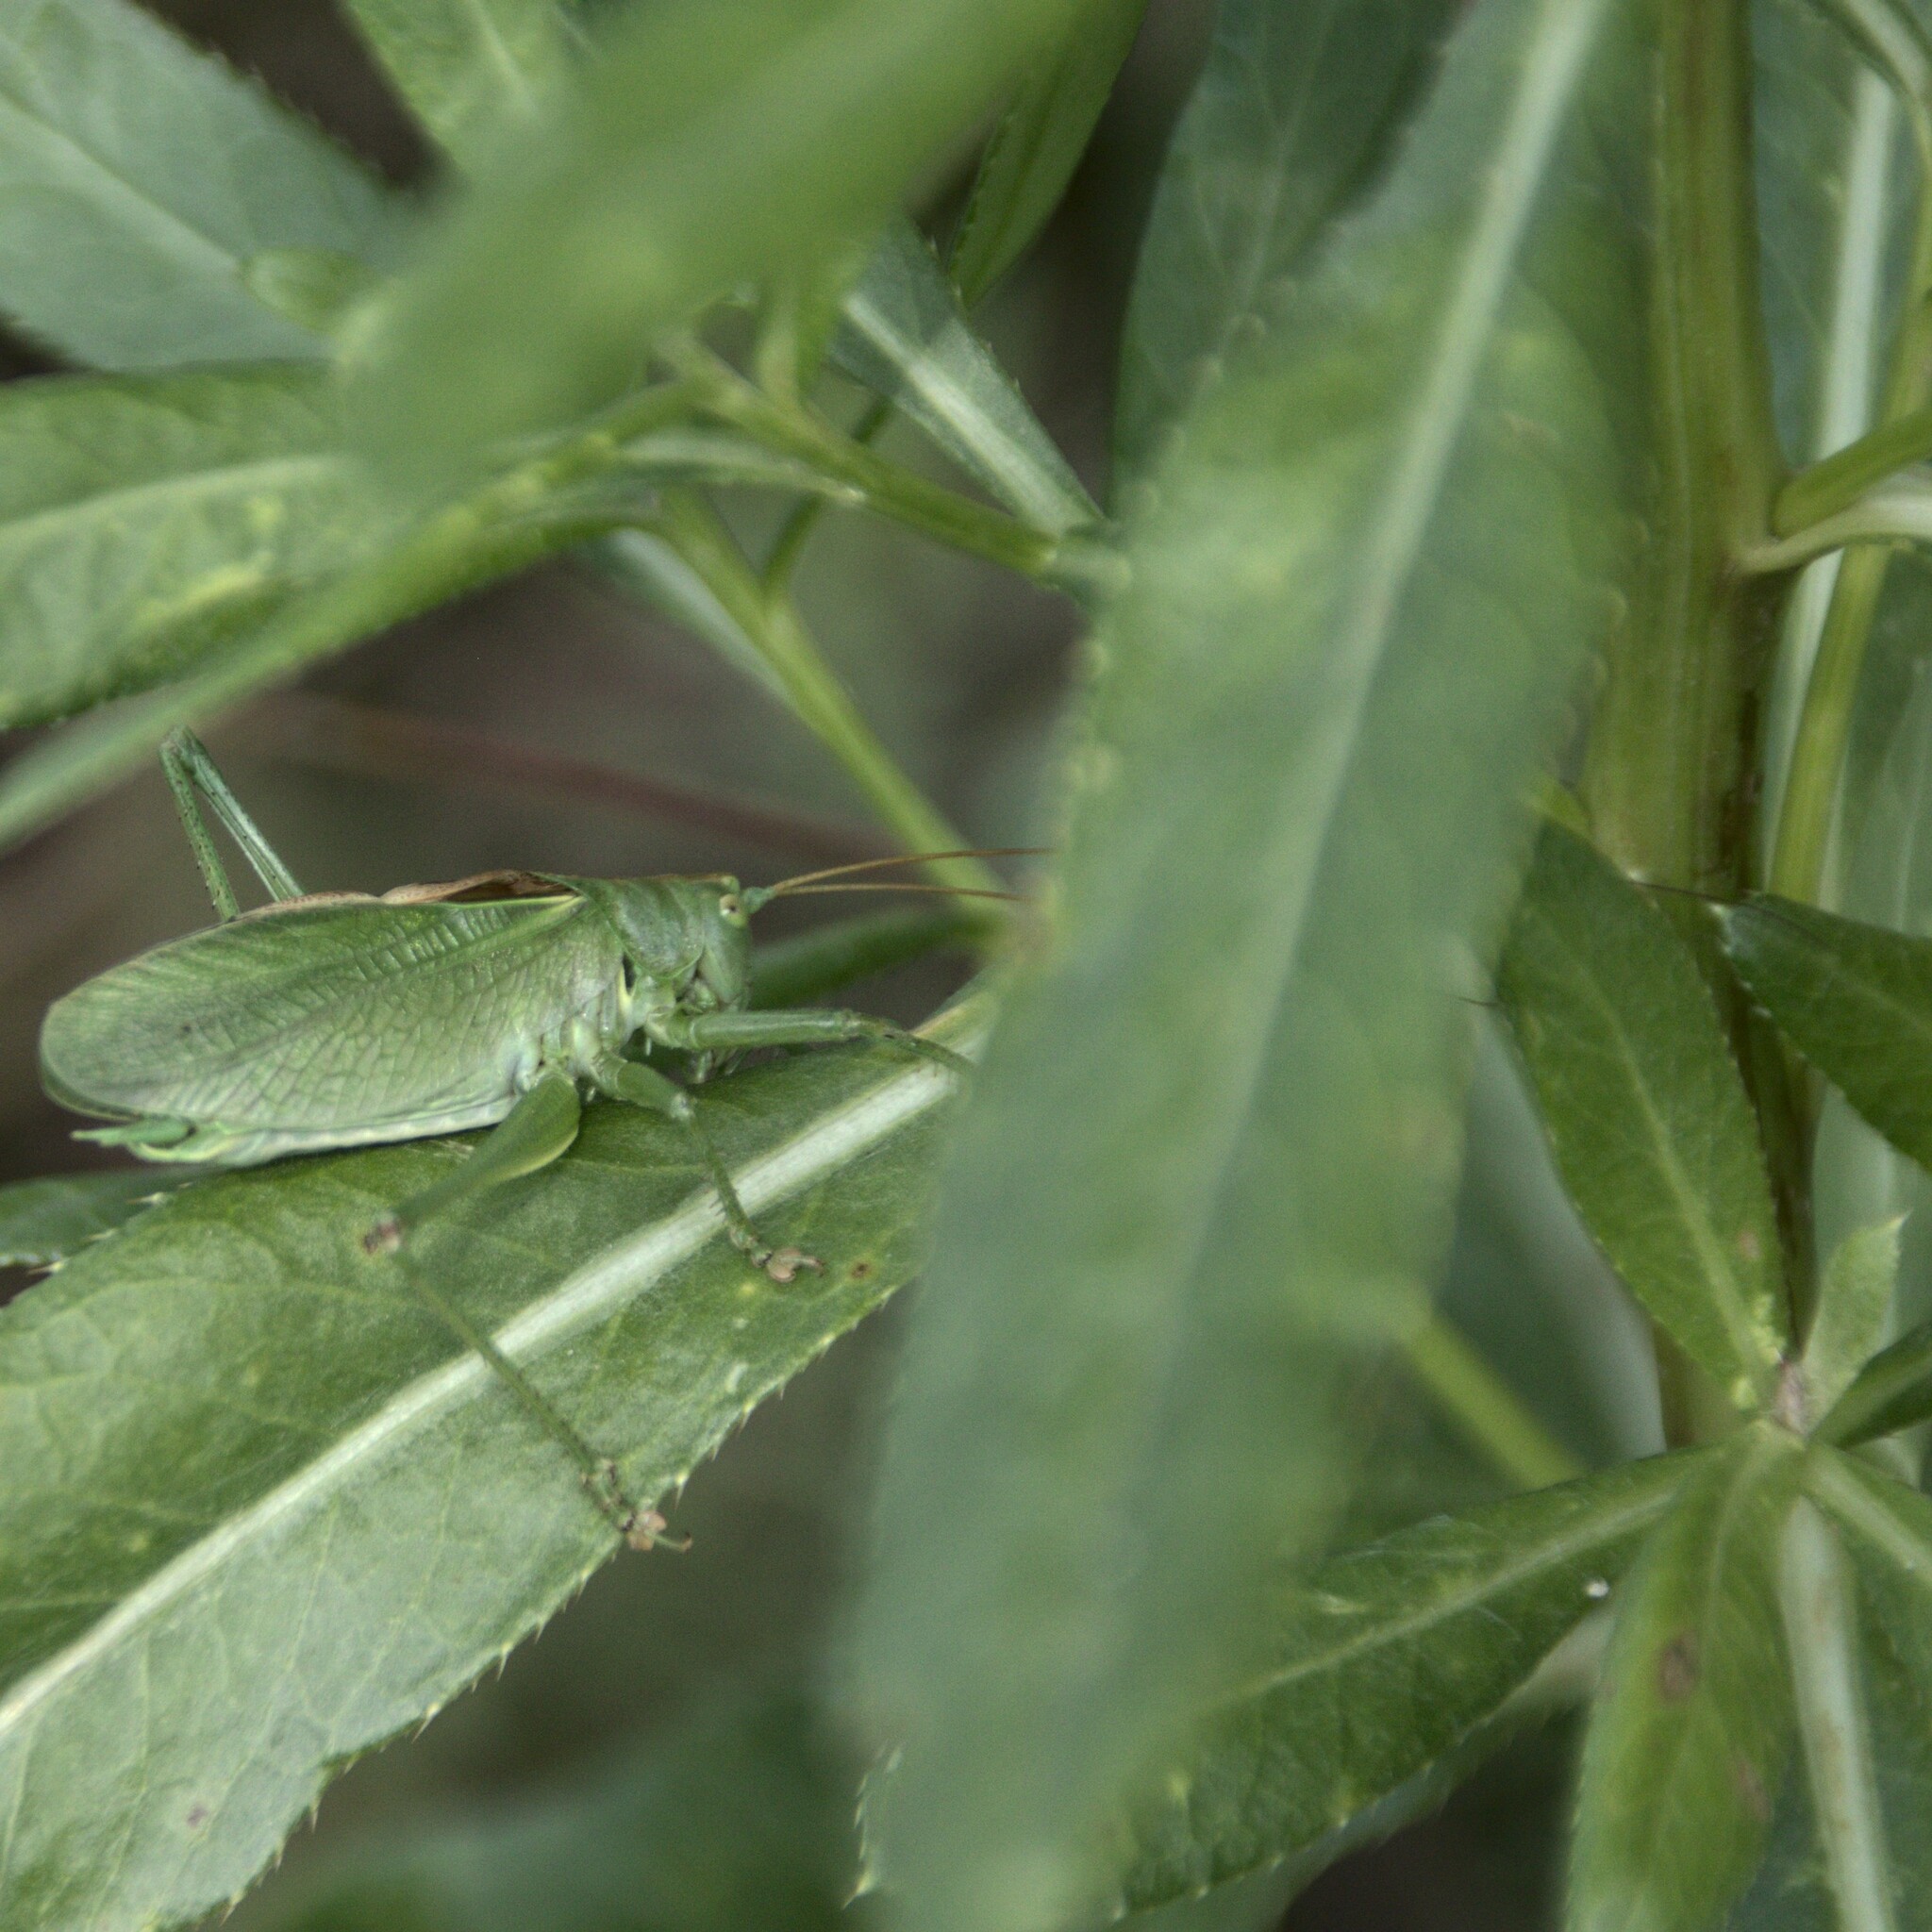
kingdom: Animalia
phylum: Arthropoda
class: Insecta
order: Orthoptera
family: Tettigoniidae
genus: Tettigonia
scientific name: Tettigonia cantans
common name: Upland green bush-cricket
